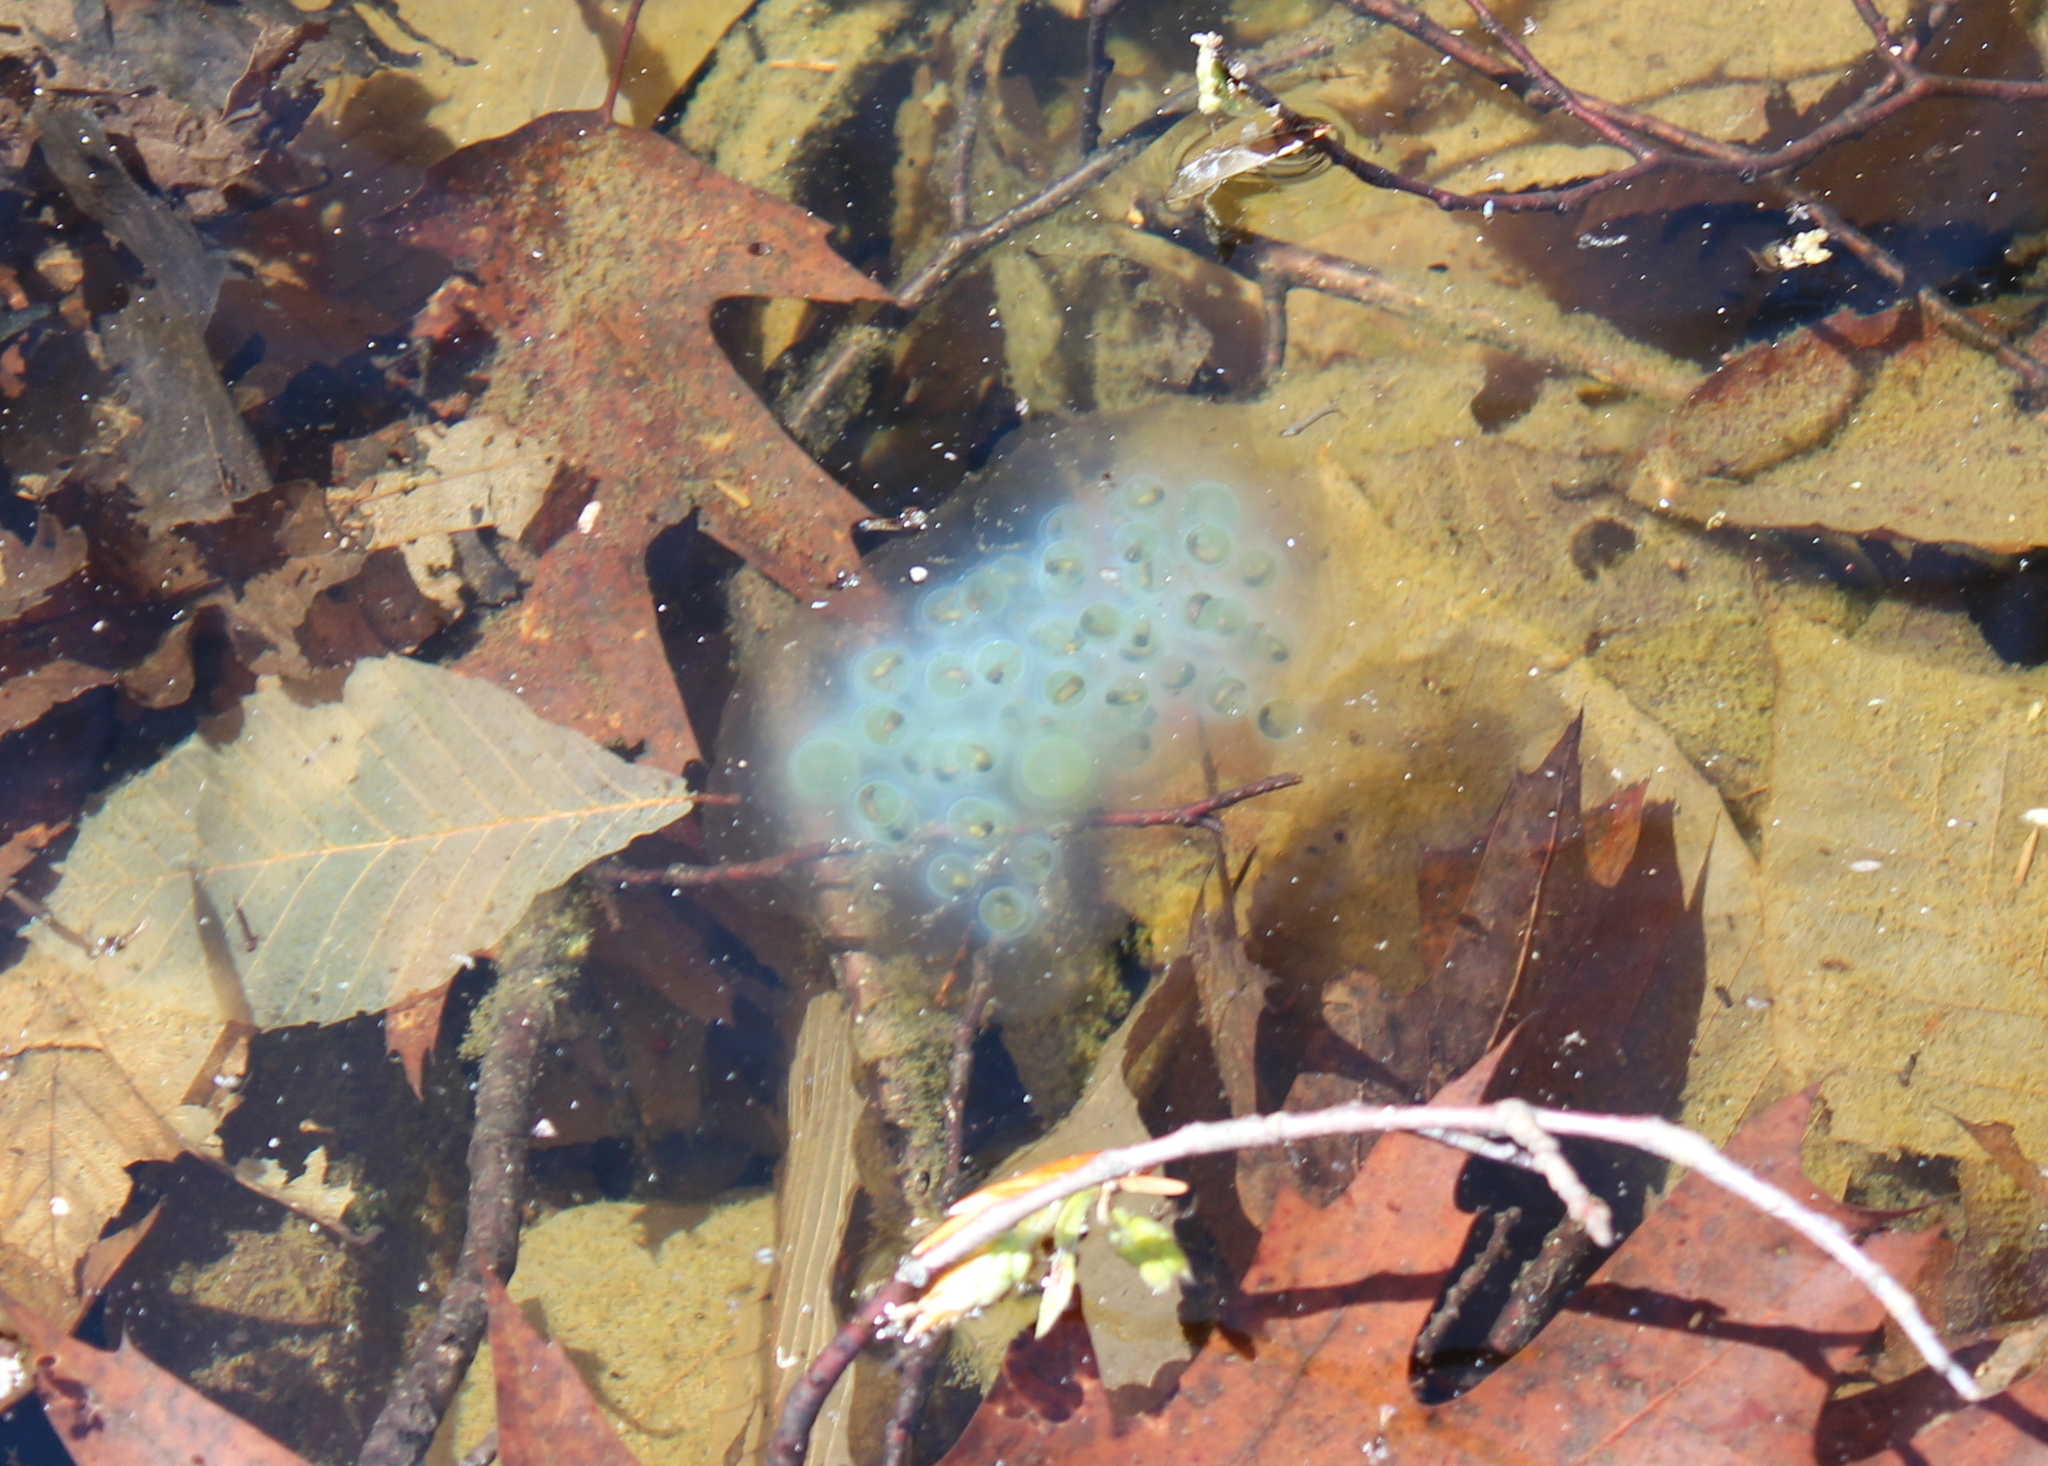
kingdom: Animalia
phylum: Chordata
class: Amphibia
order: Caudata
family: Ambystomatidae
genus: Ambystoma
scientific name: Ambystoma maculatum
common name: Spotted salamander
